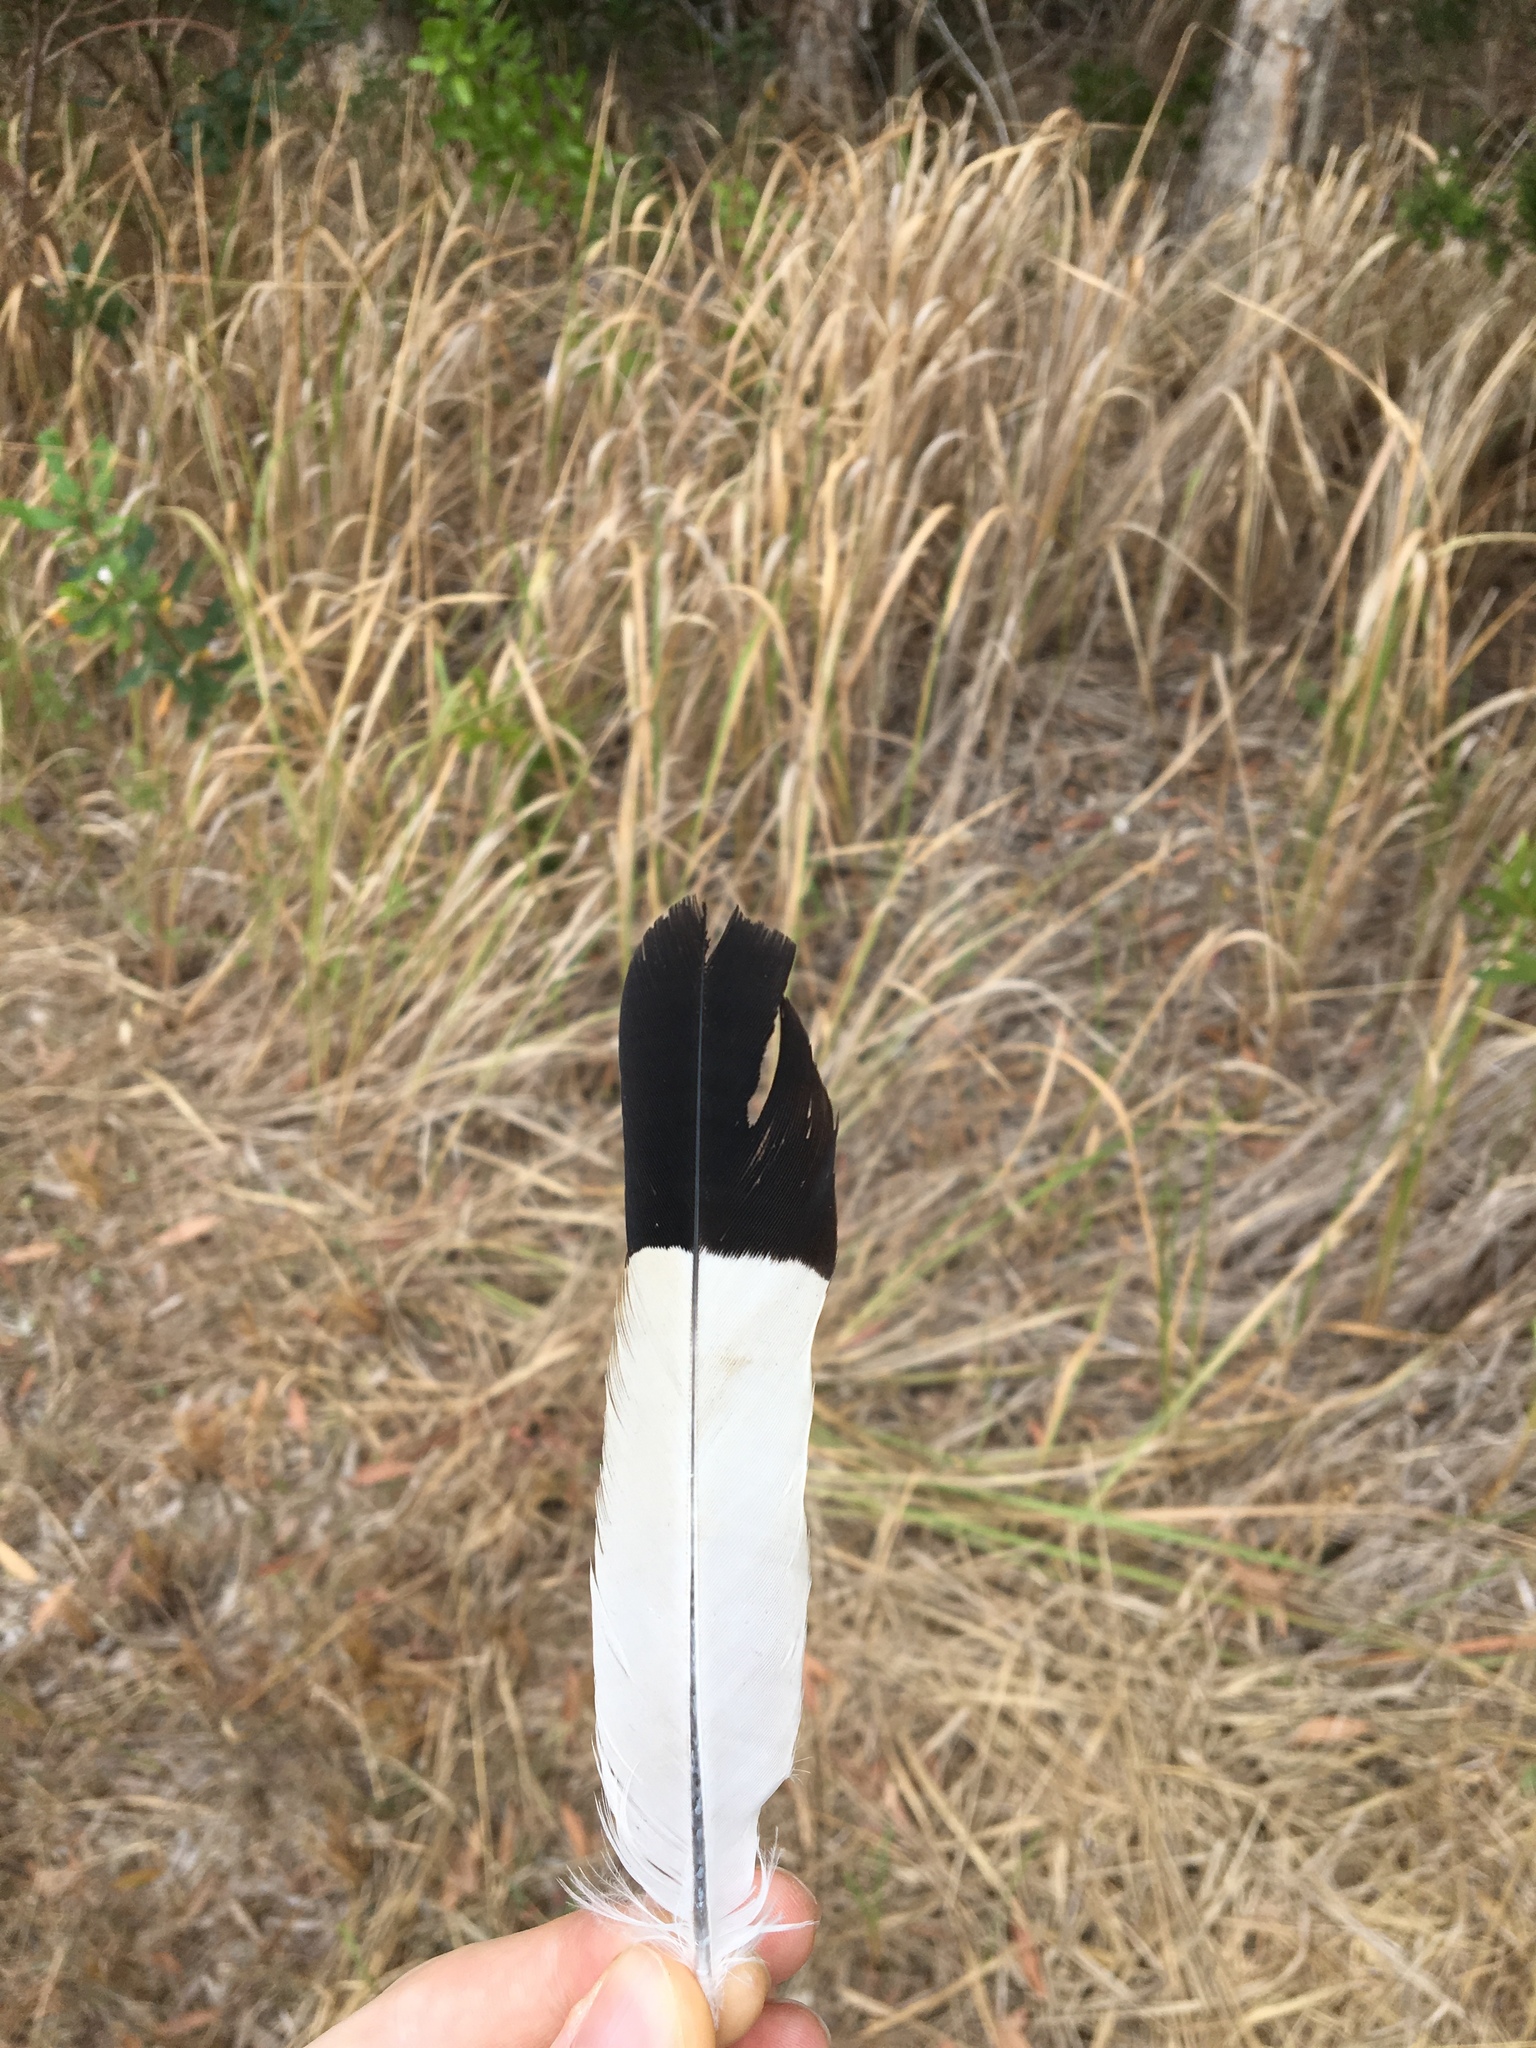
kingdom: Animalia
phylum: Chordata
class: Aves
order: Passeriformes
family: Cracticidae
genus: Gymnorhina
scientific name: Gymnorhina tibicen
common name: Australian magpie
